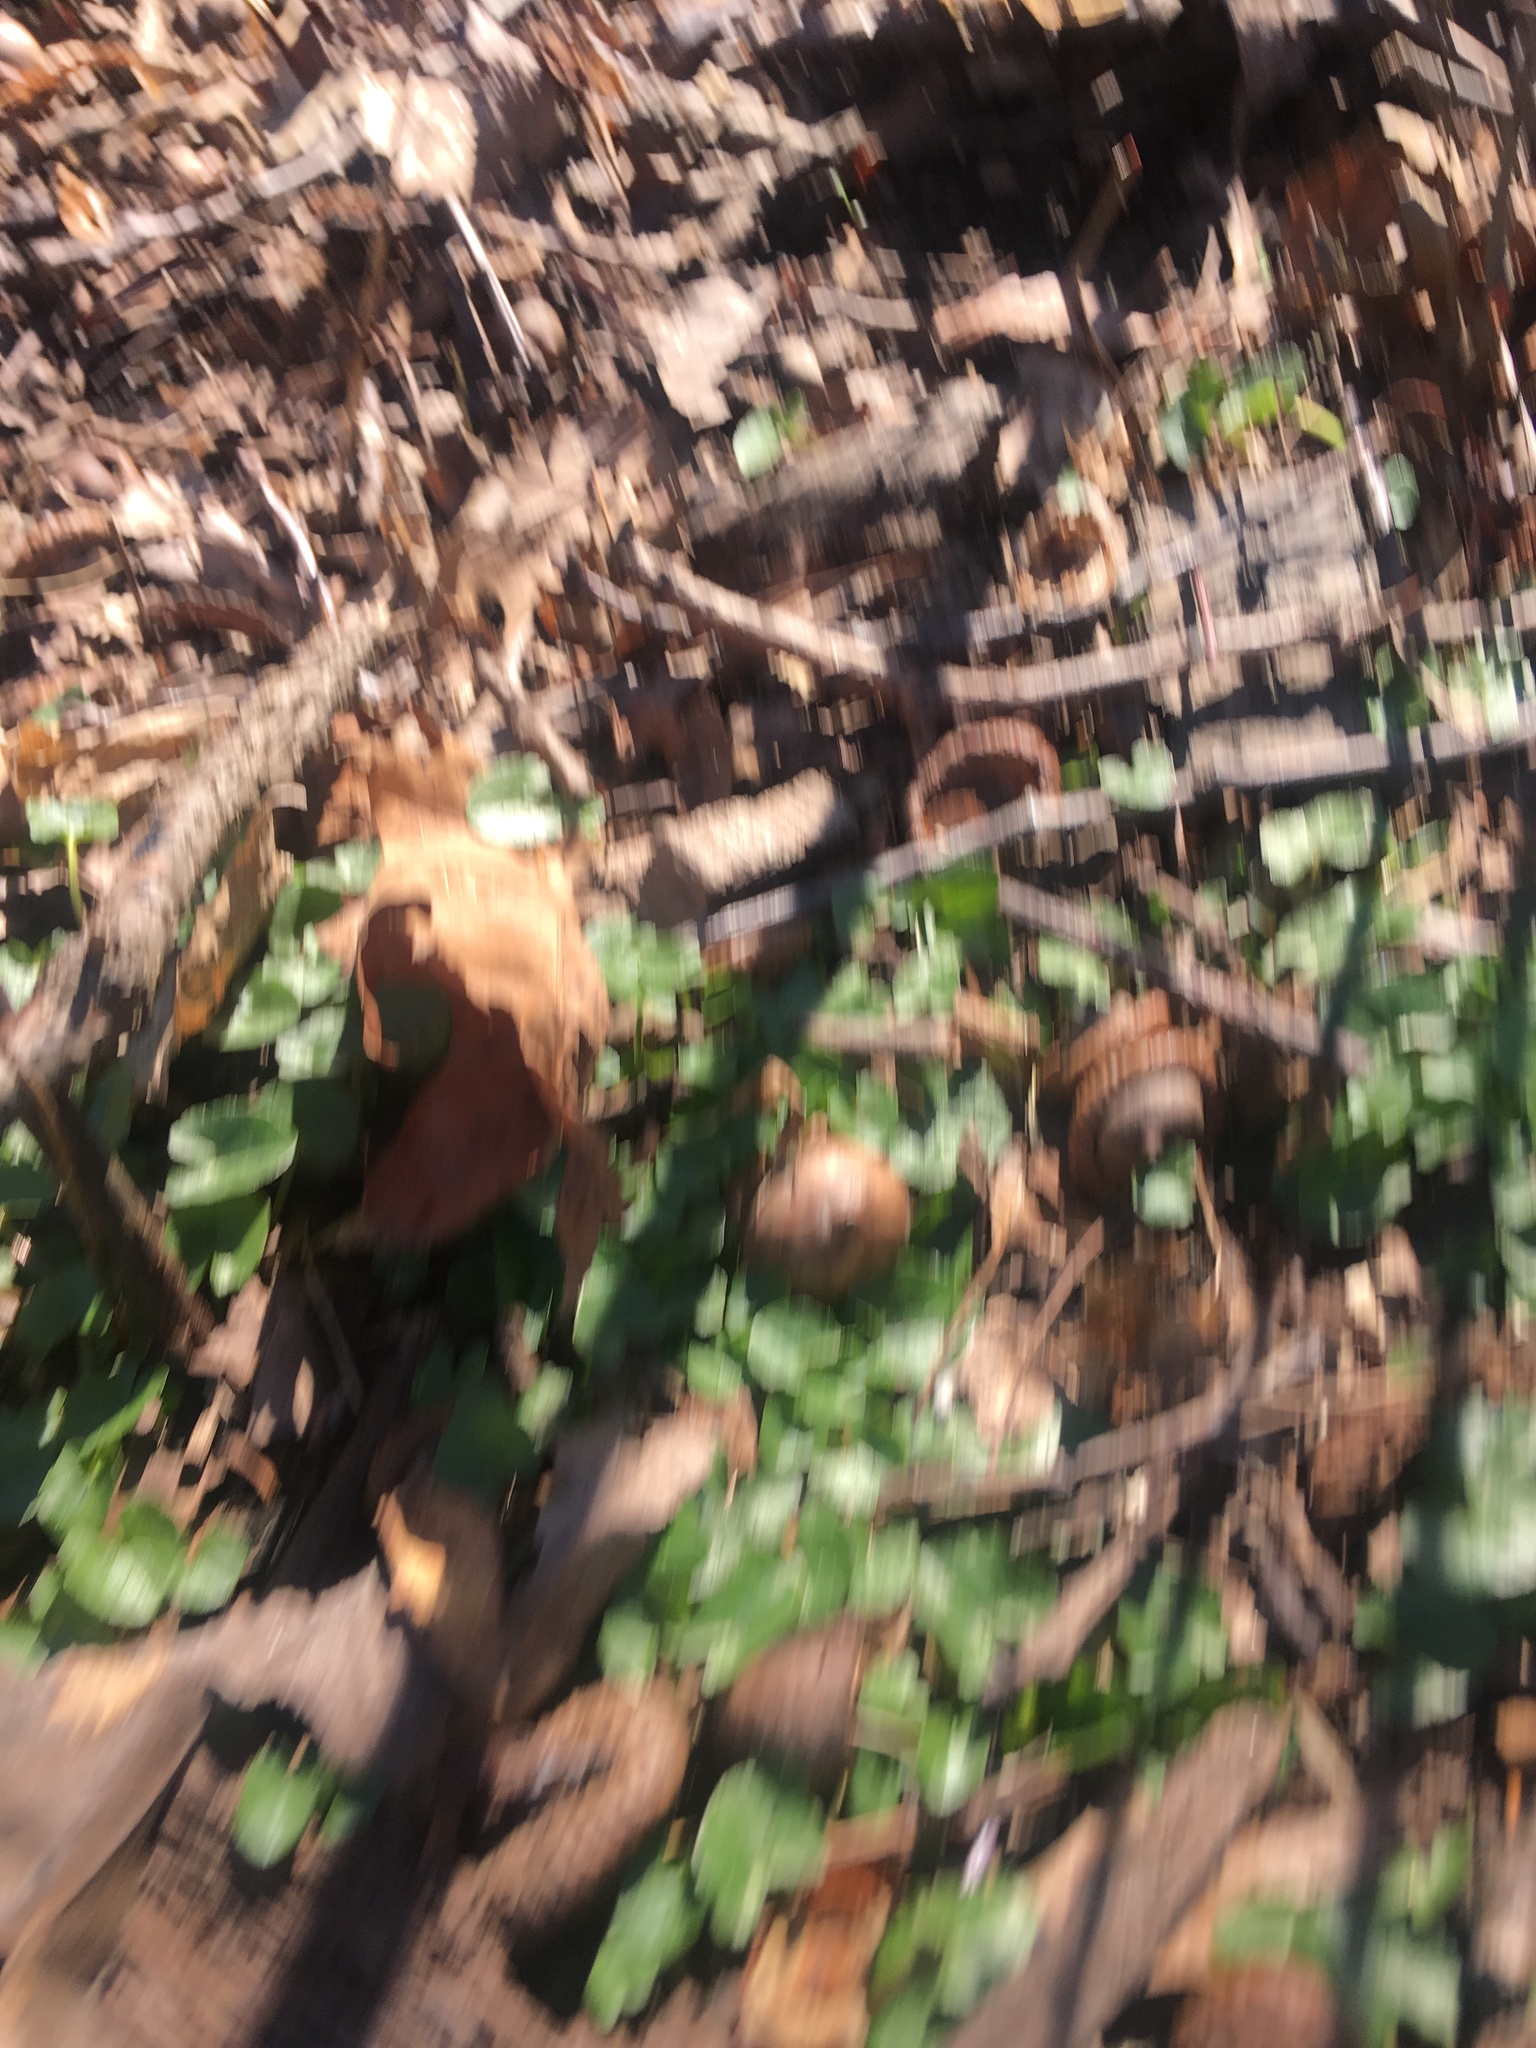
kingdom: Plantae
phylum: Tracheophyta
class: Magnoliopsida
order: Ranunculales
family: Ranunculaceae
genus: Ficaria
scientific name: Ficaria verna
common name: Lesser celandine
